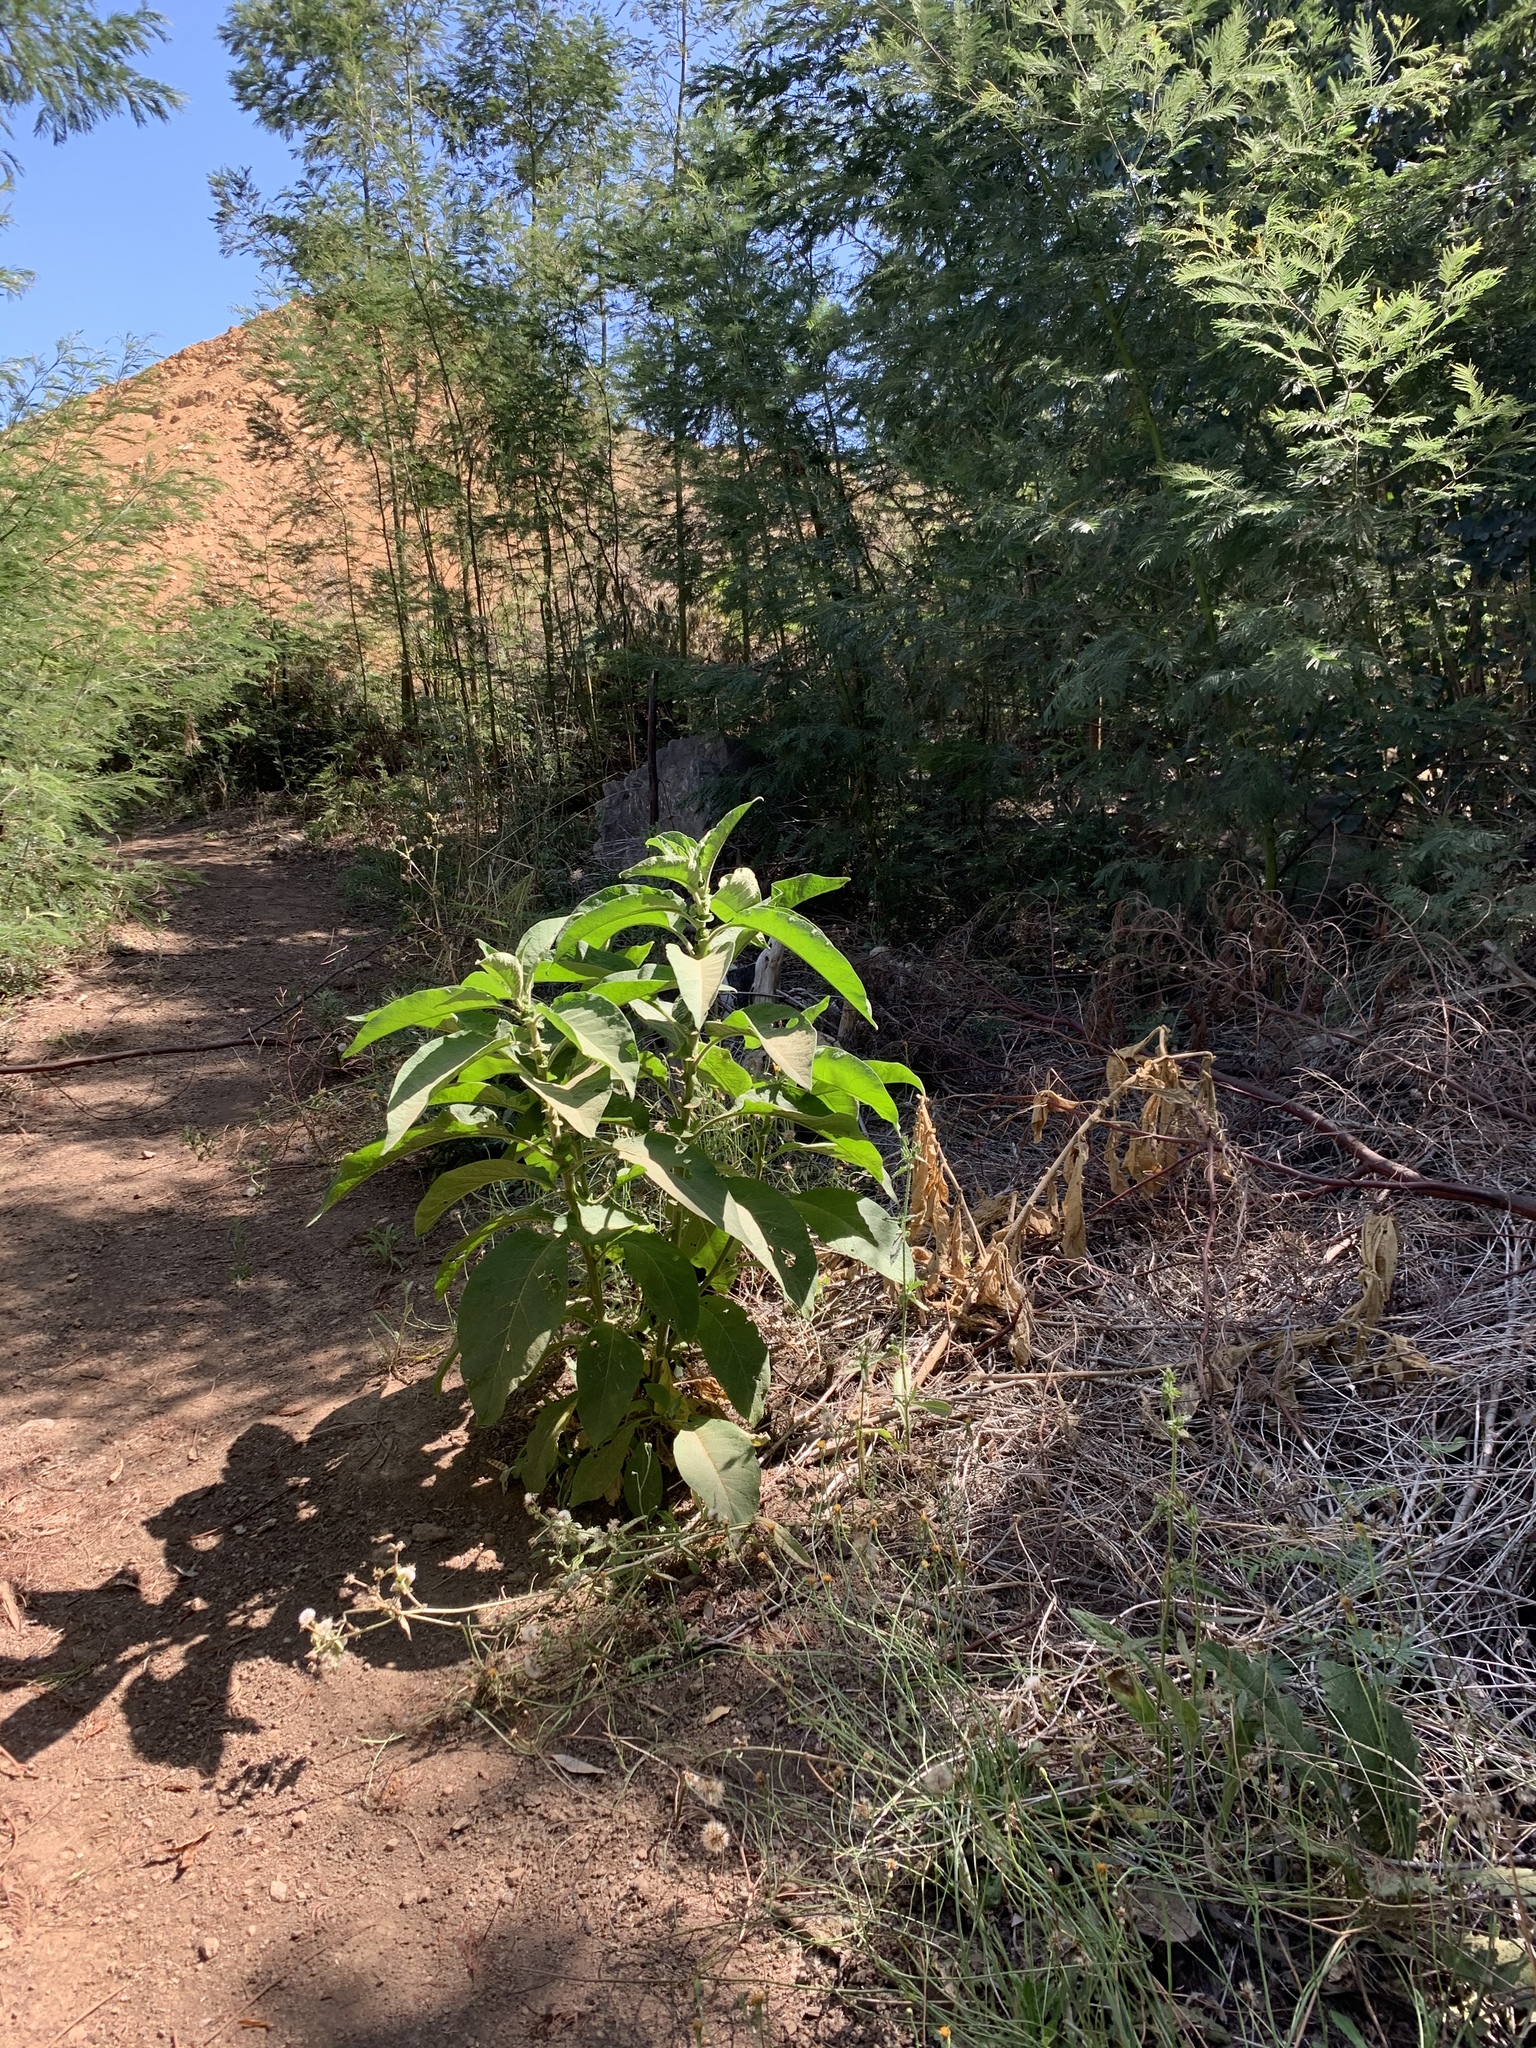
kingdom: Plantae
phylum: Tracheophyta
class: Magnoliopsida
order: Solanales
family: Solanaceae
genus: Solanum
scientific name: Solanum mauritianum
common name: Earleaf nightshade
